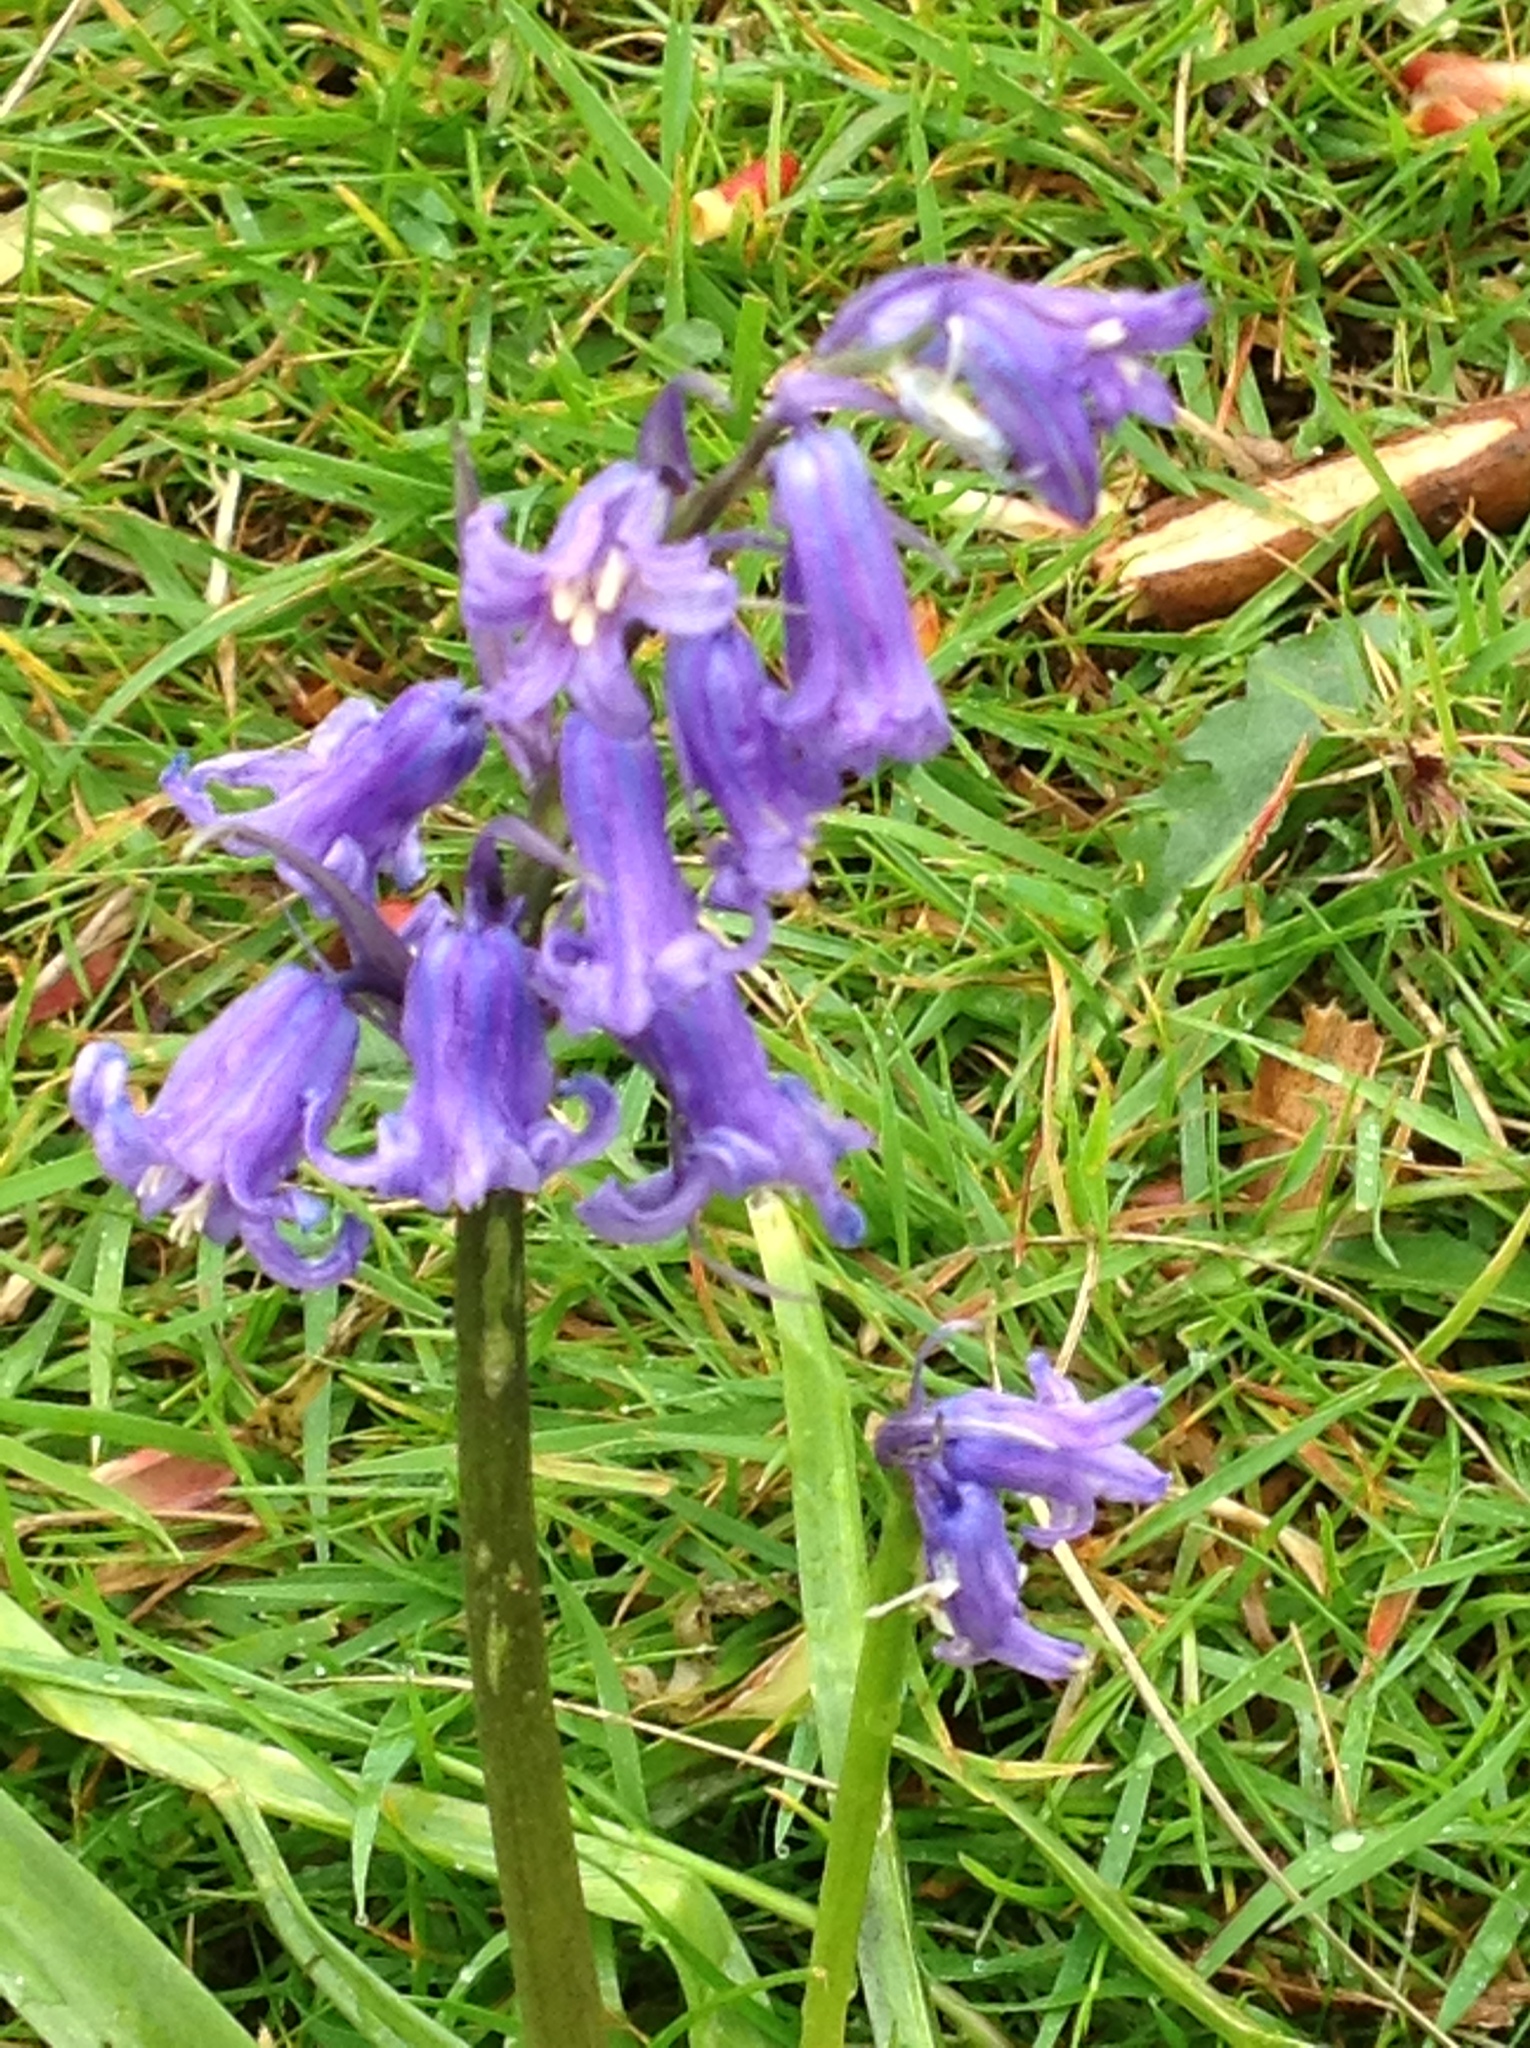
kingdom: Plantae
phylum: Tracheophyta
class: Liliopsida
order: Asparagales
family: Asparagaceae
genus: Hyacinthoides
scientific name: Hyacinthoides non-scripta
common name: Bluebell
